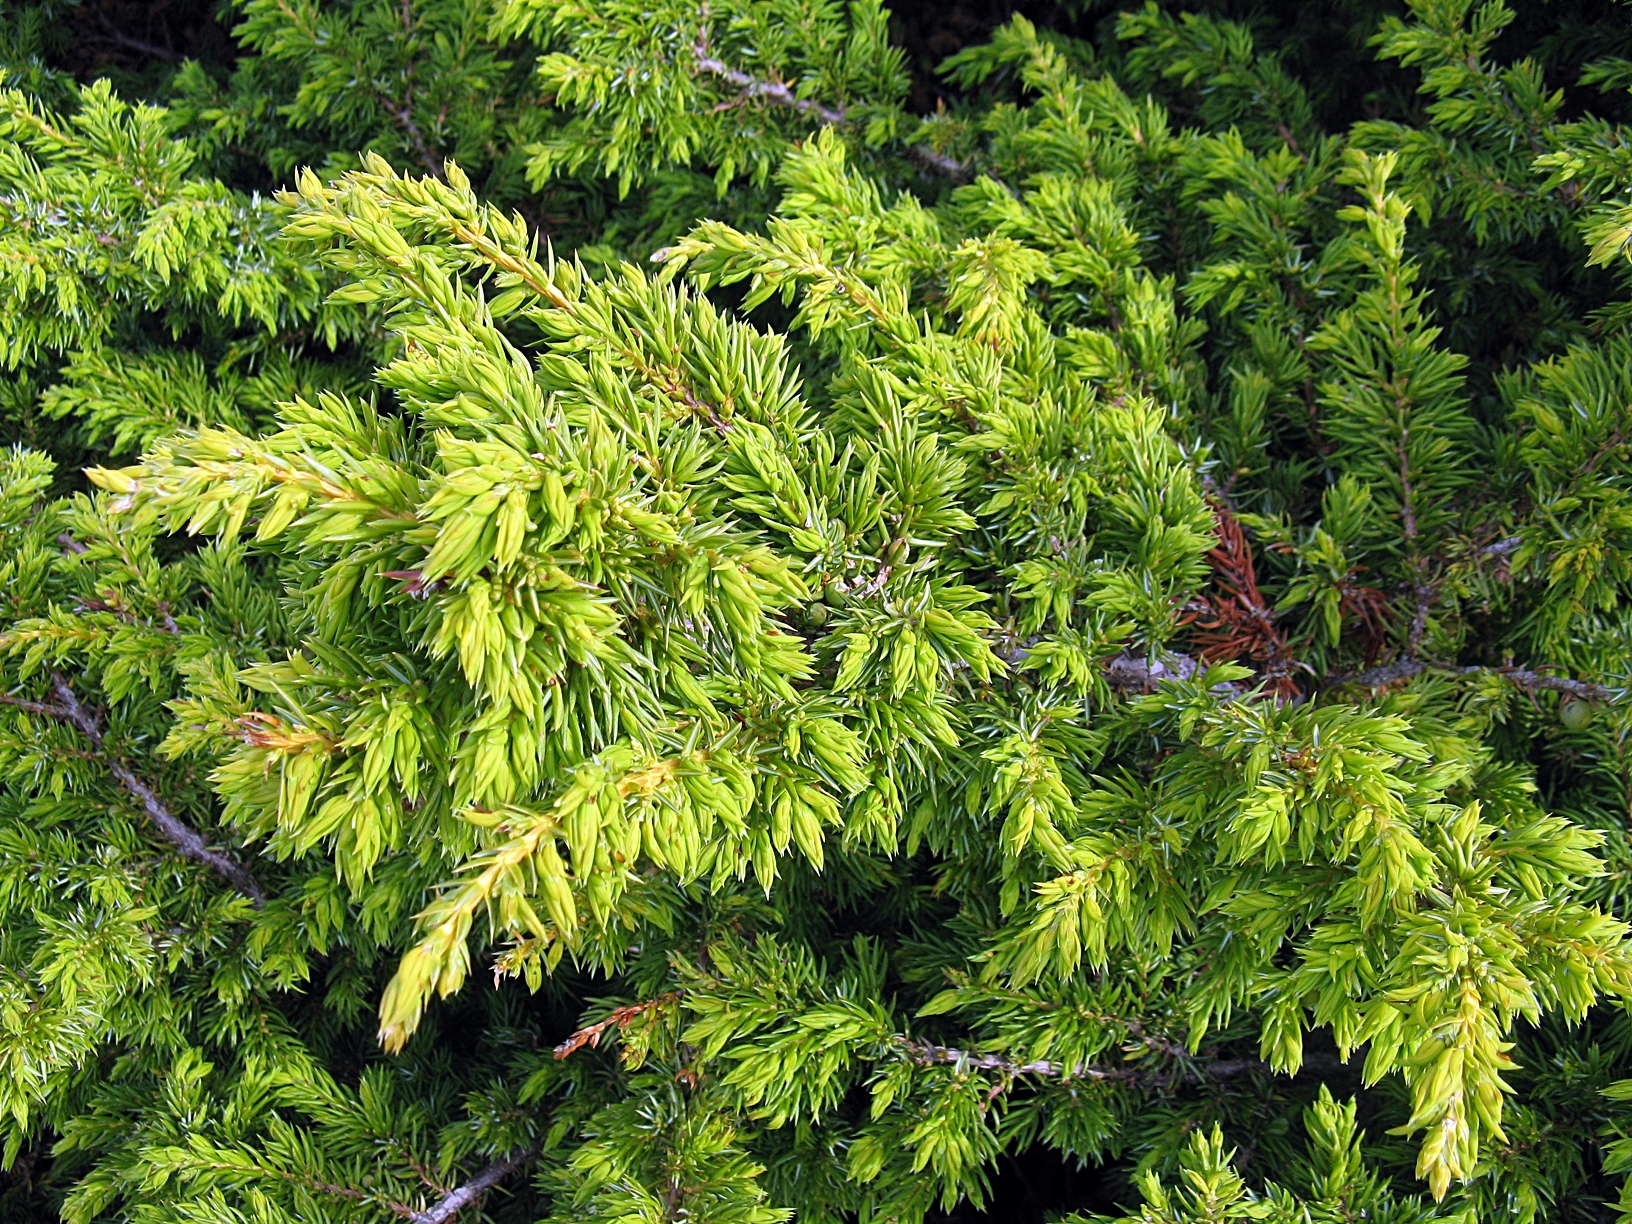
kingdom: Plantae
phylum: Tracheophyta
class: Pinopsida
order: Pinales
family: Cupressaceae
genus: Juniperus
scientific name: Juniperus communis
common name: Common juniper
